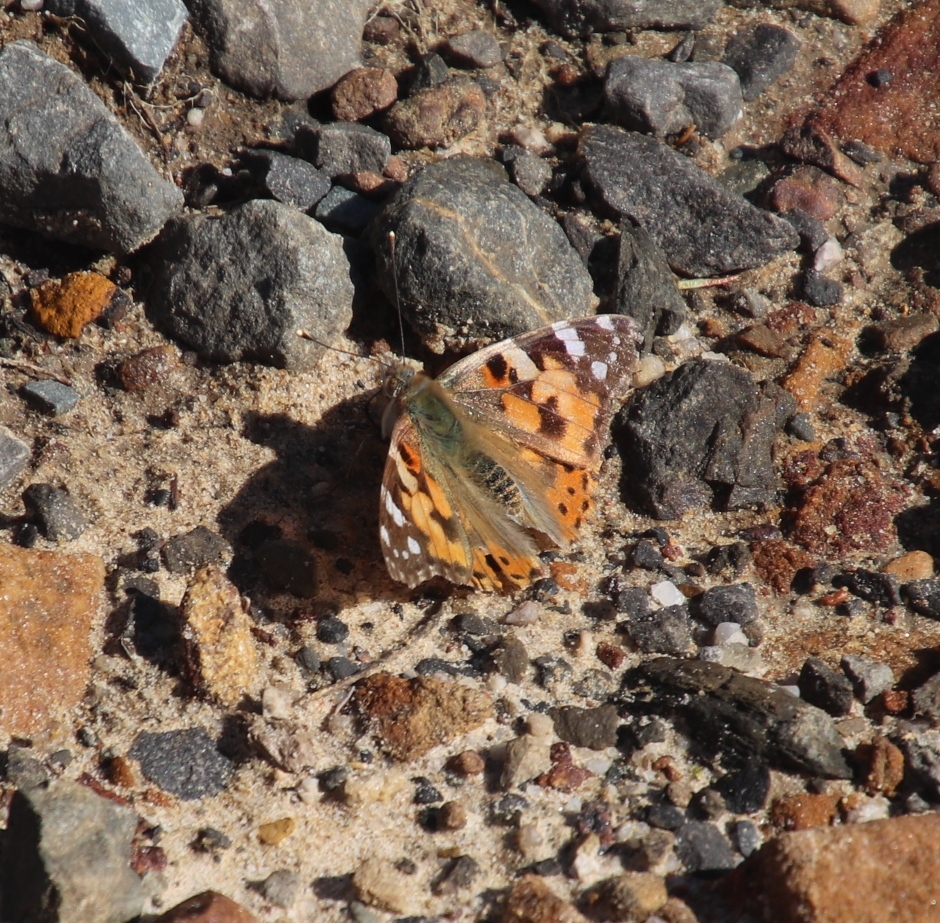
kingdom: Animalia
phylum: Arthropoda
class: Insecta
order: Lepidoptera
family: Nymphalidae
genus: Vanessa
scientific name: Vanessa cardui
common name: Painted lady
